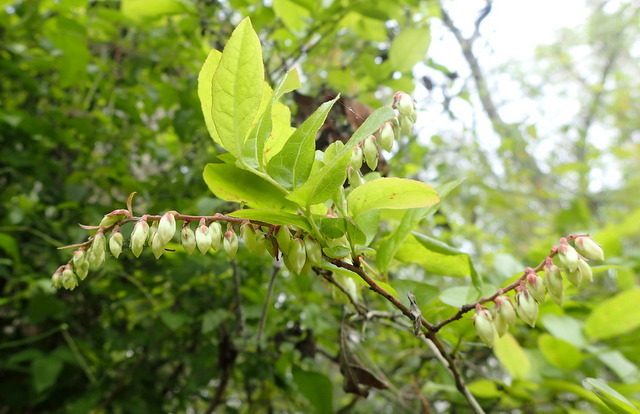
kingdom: Plantae
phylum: Tracheophyta
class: Magnoliopsida
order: Ericales
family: Ericaceae
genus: Eubotrys
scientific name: Eubotrys racemosa
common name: Fetterbush
